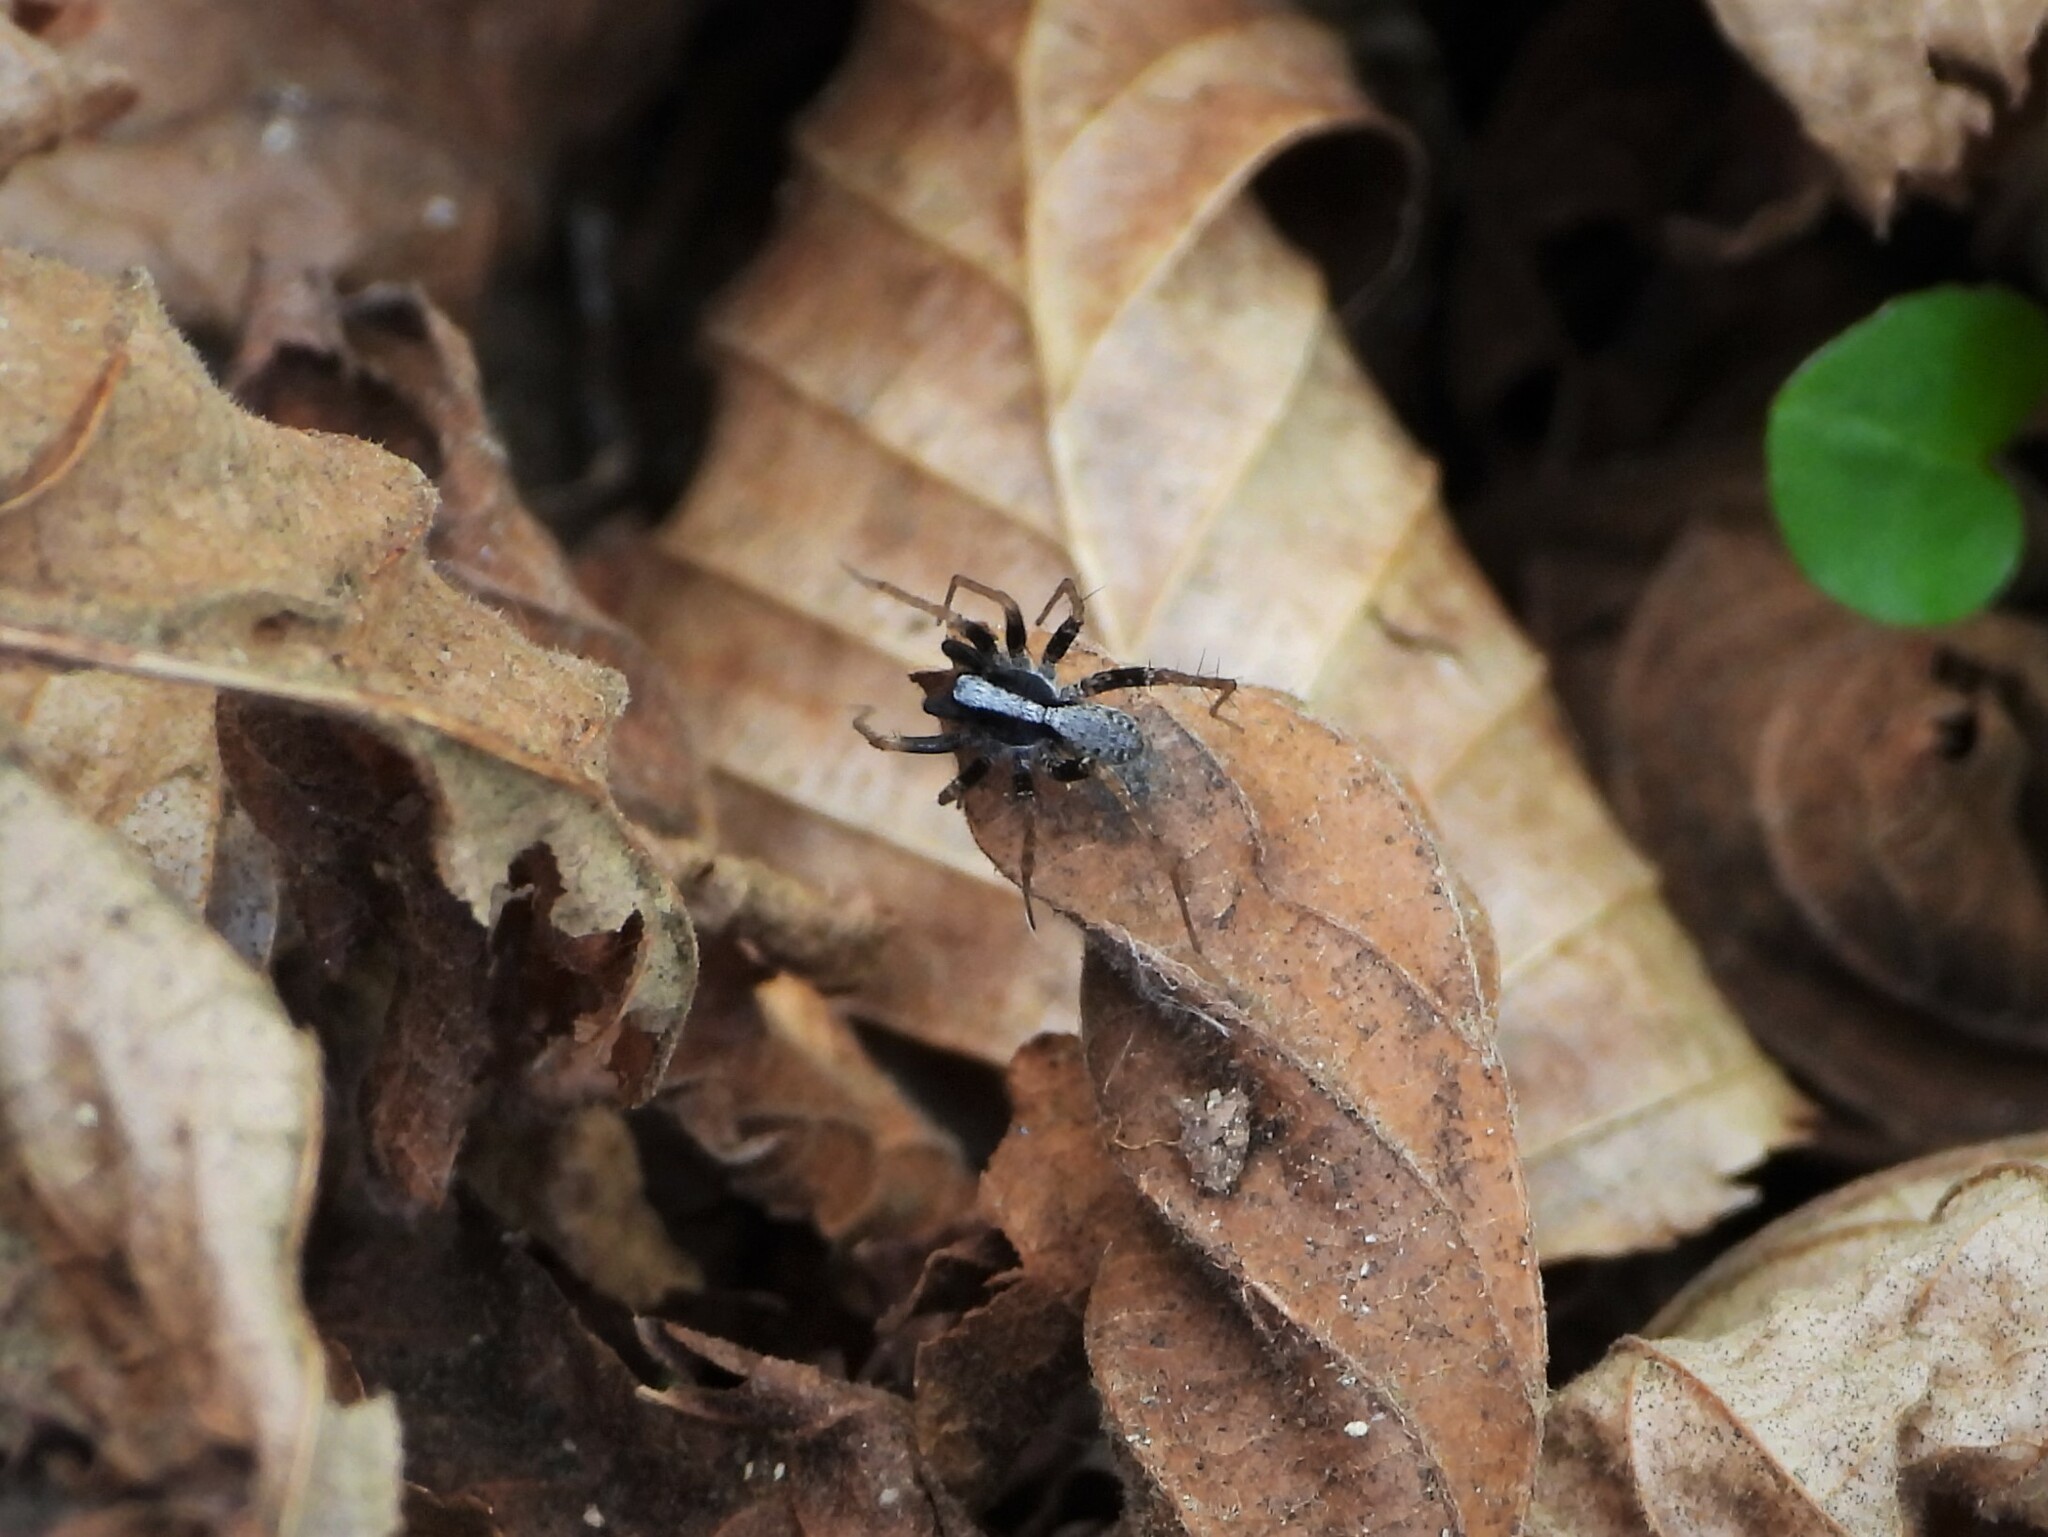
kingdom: Animalia
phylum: Arthropoda
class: Arachnida
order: Araneae
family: Lycosidae
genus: Pardosa
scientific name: Pardosa
